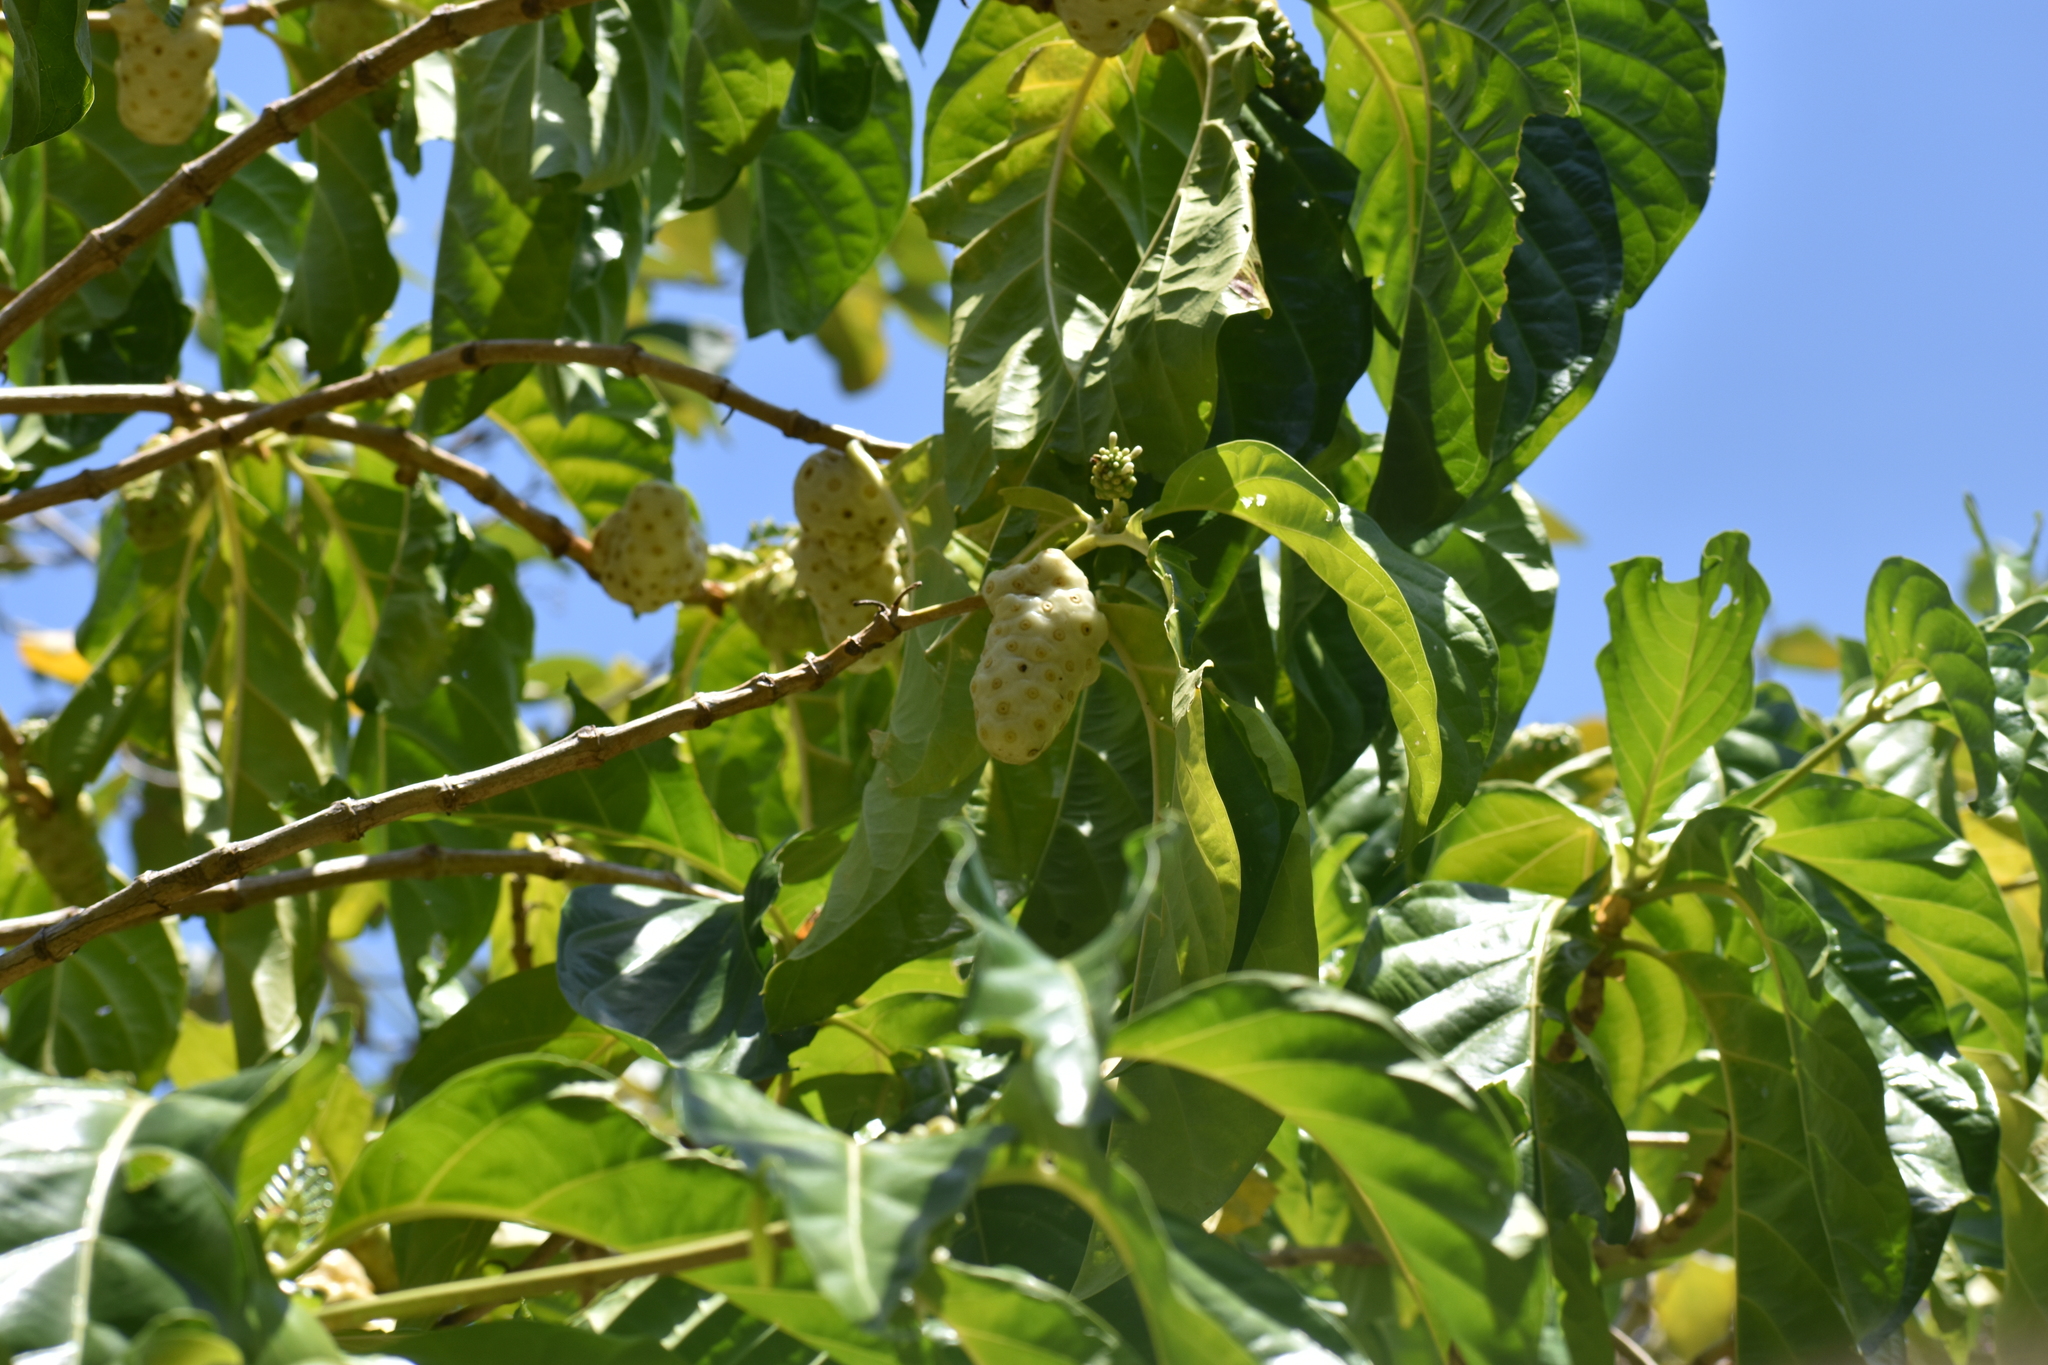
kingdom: Plantae
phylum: Tracheophyta
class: Magnoliopsida
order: Gentianales
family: Rubiaceae
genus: Morinda
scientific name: Morinda citrifolia
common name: Indian-mulberry
